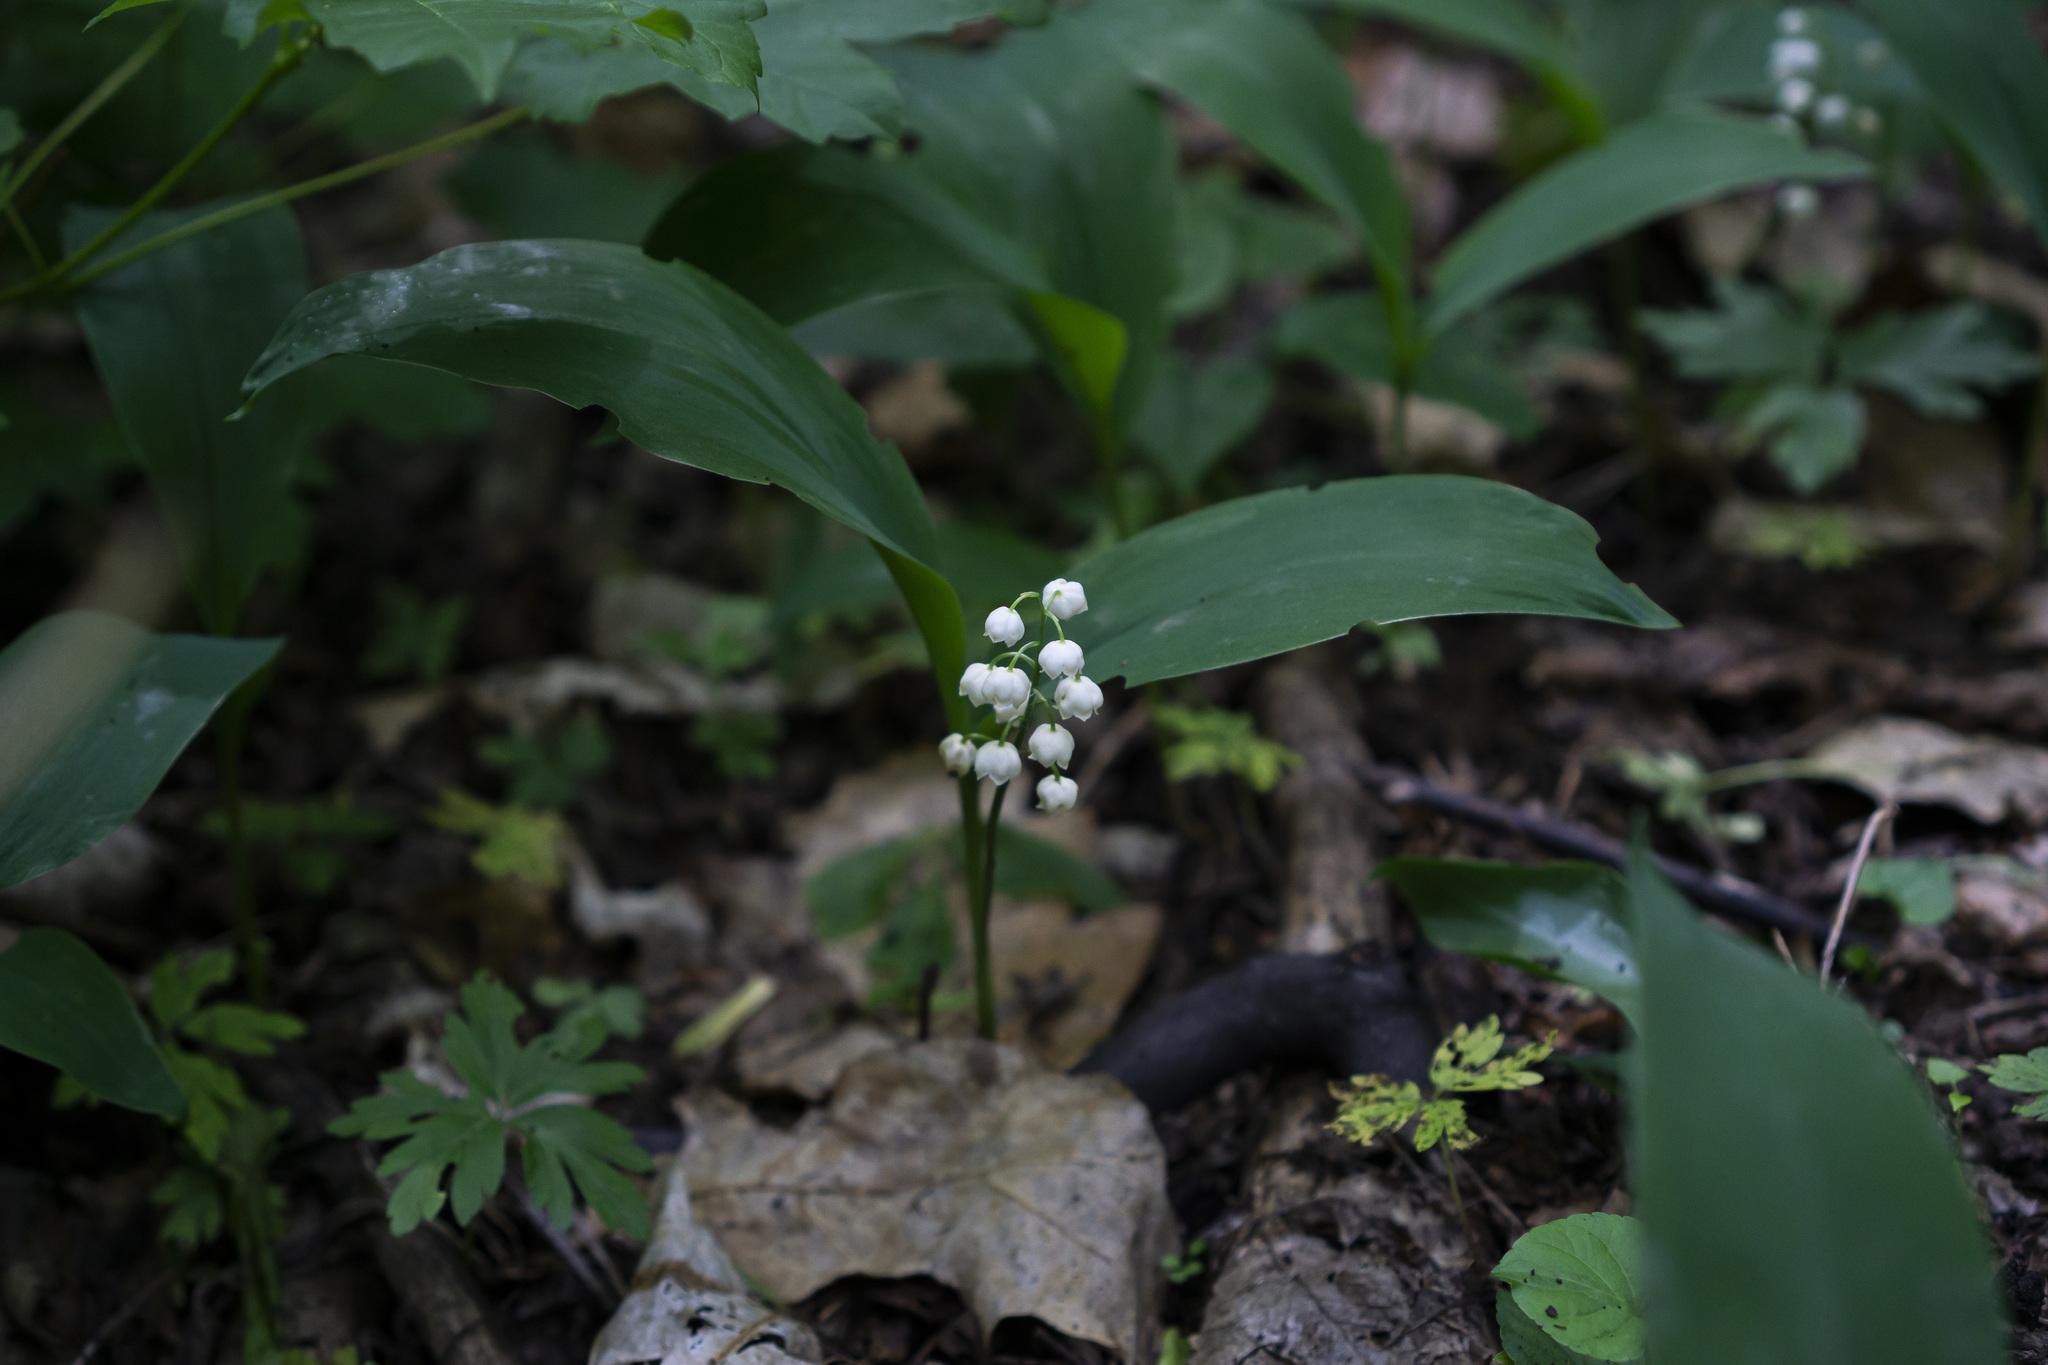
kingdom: Plantae
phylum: Tracheophyta
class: Liliopsida
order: Asparagales
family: Asparagaceae
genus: Convallaria
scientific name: Convallaria majalis
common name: Lily-of-the-valley
